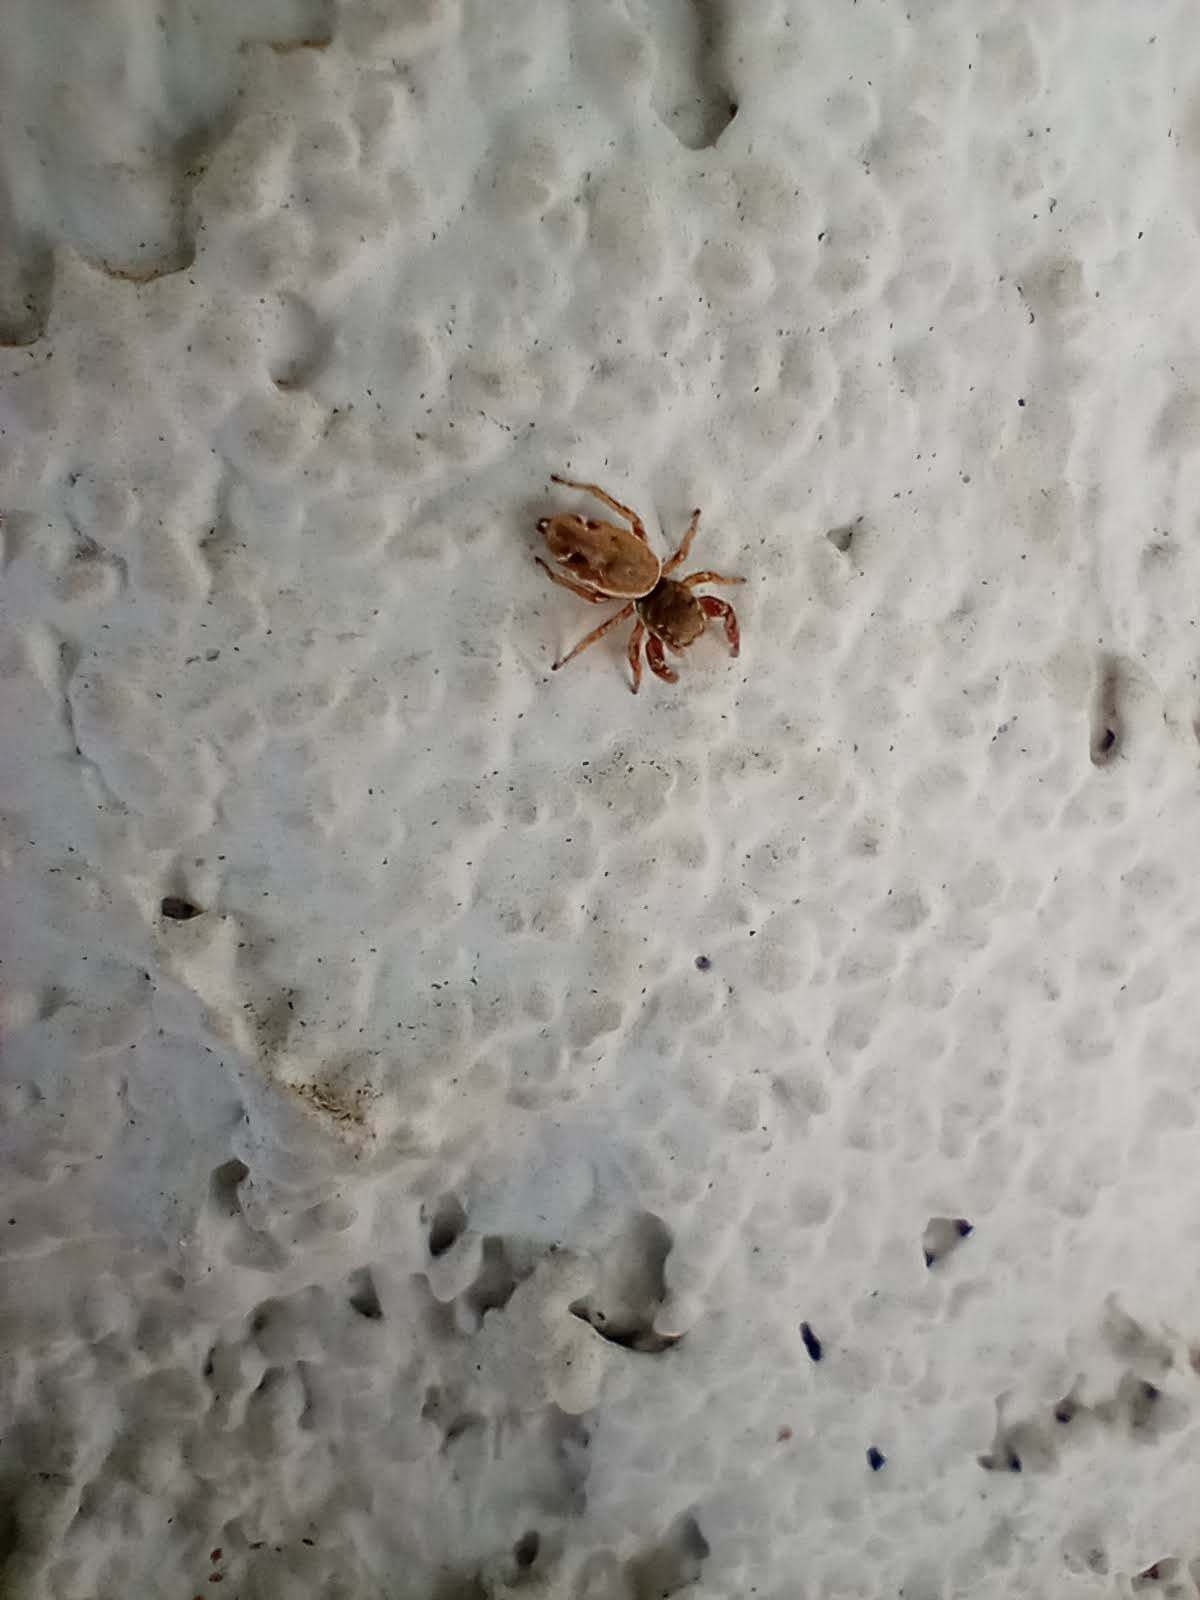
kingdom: Animalia
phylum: Arthropoda
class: Arachnida
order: Araneae
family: Salticidae
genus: Sassacus
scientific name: Sassacus vitis
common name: Jumping spiders
